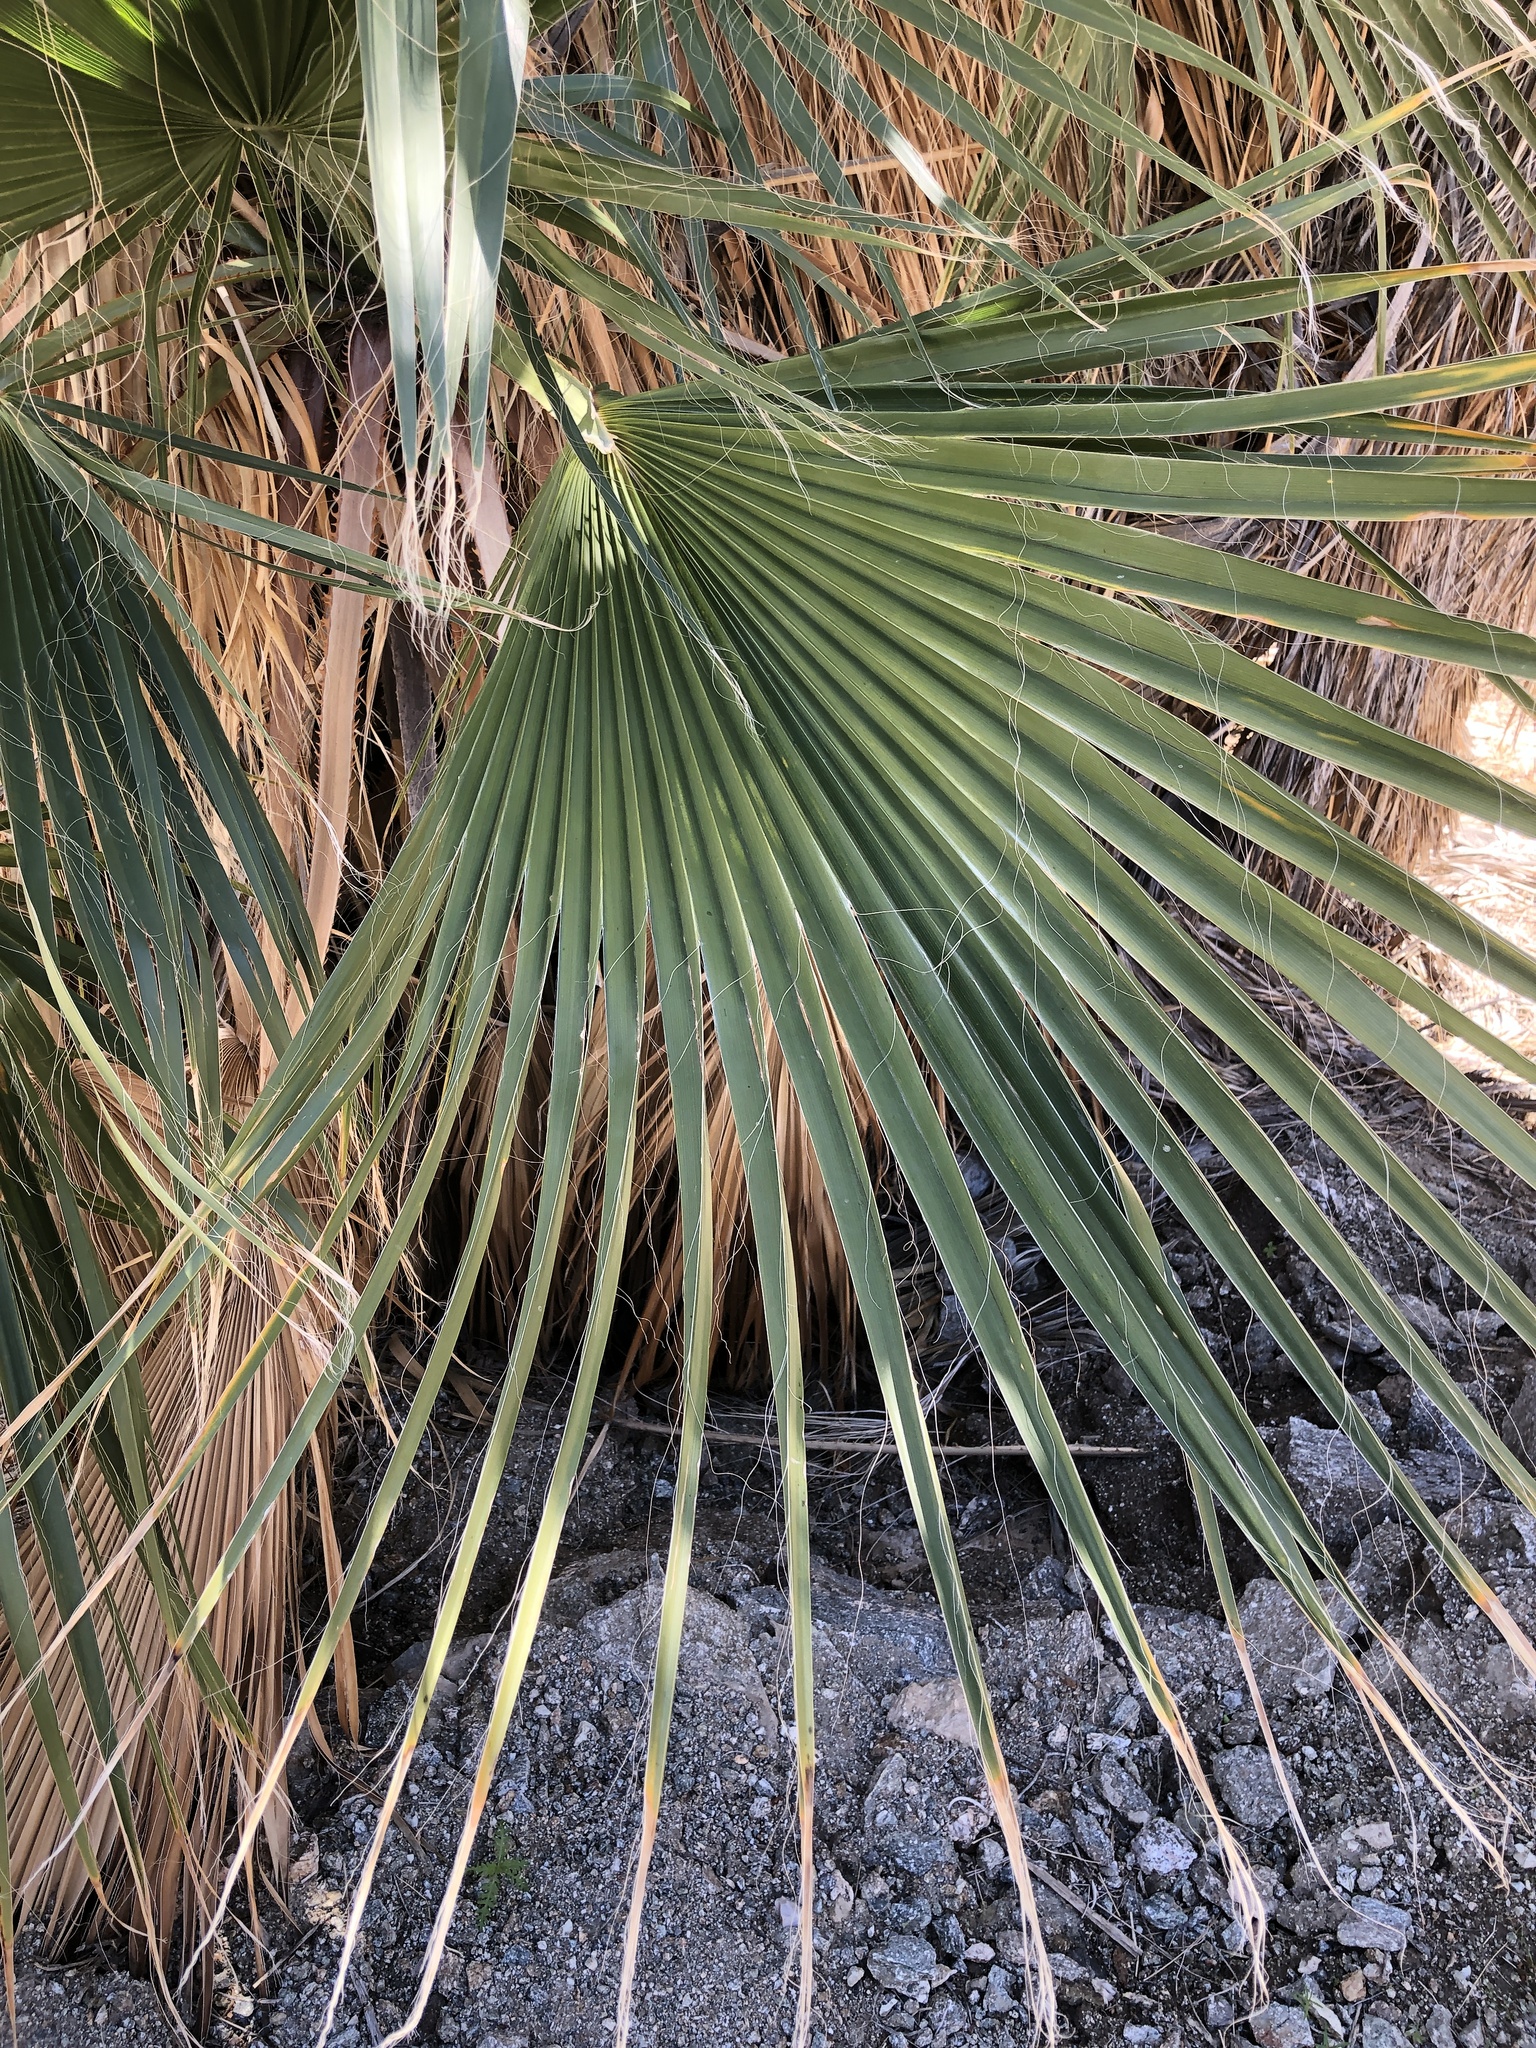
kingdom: Plantae
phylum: Tracheophyta
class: Liliopsida
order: Arecales
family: Arecaceae
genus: Washingtonia
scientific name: Washingtonia filifera
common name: California fan palm
